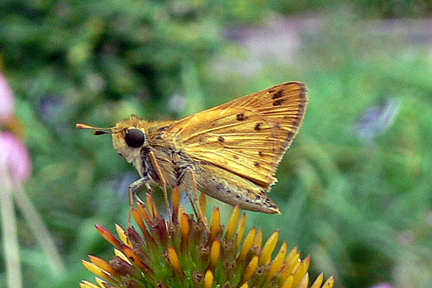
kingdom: Animalia
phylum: Arthropoda
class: Insecta
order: Lepidoptera
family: Hesperiidae
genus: Hylephila
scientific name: Hylephila phyleus
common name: Fiery skipper
